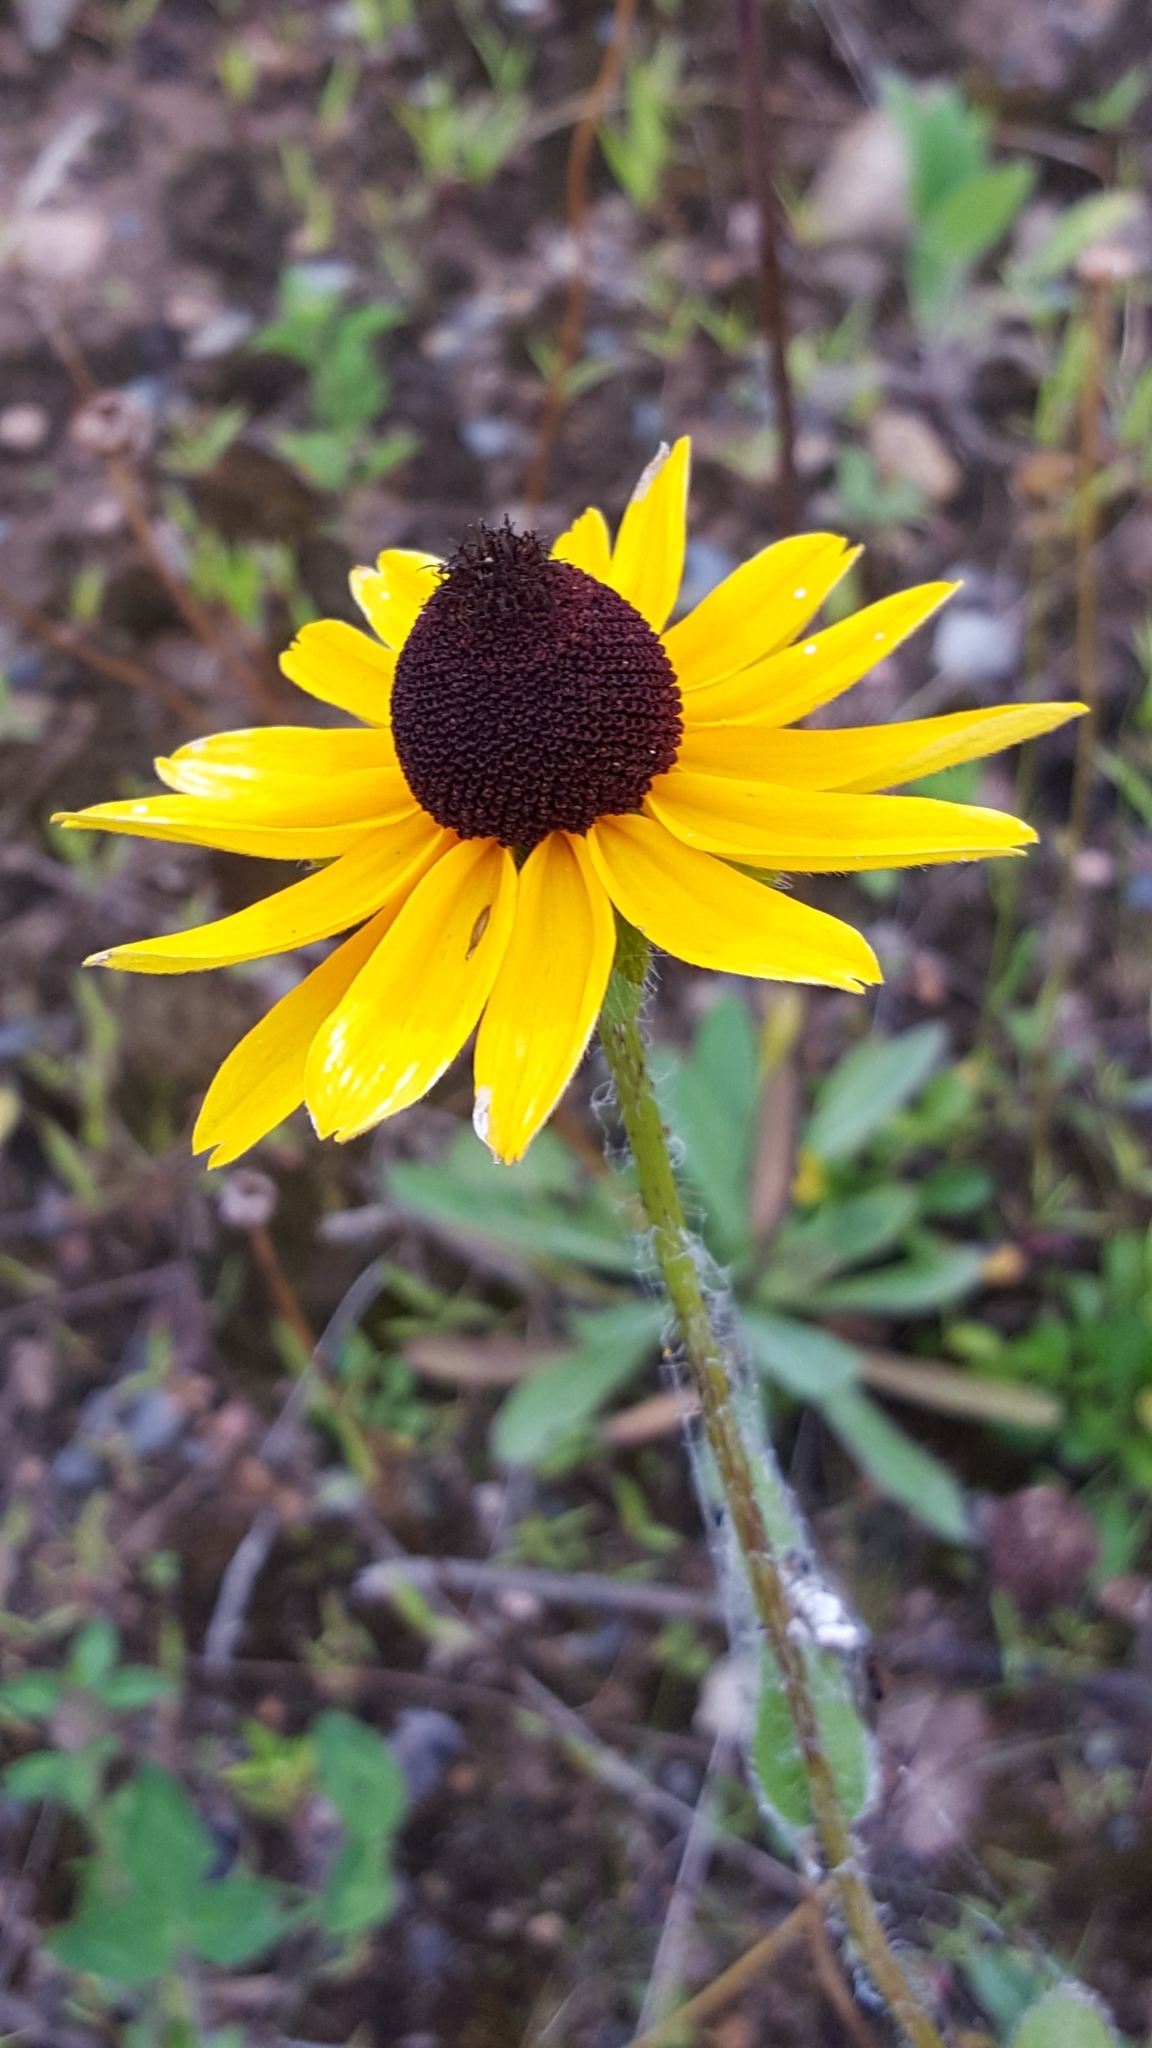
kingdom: Plantae
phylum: Tracheophyta
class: Magnoliopsida
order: Asterales
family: Asteraceae
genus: Rudbeckia
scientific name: Rudbeckia hirta
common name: Black-eyed-susan
